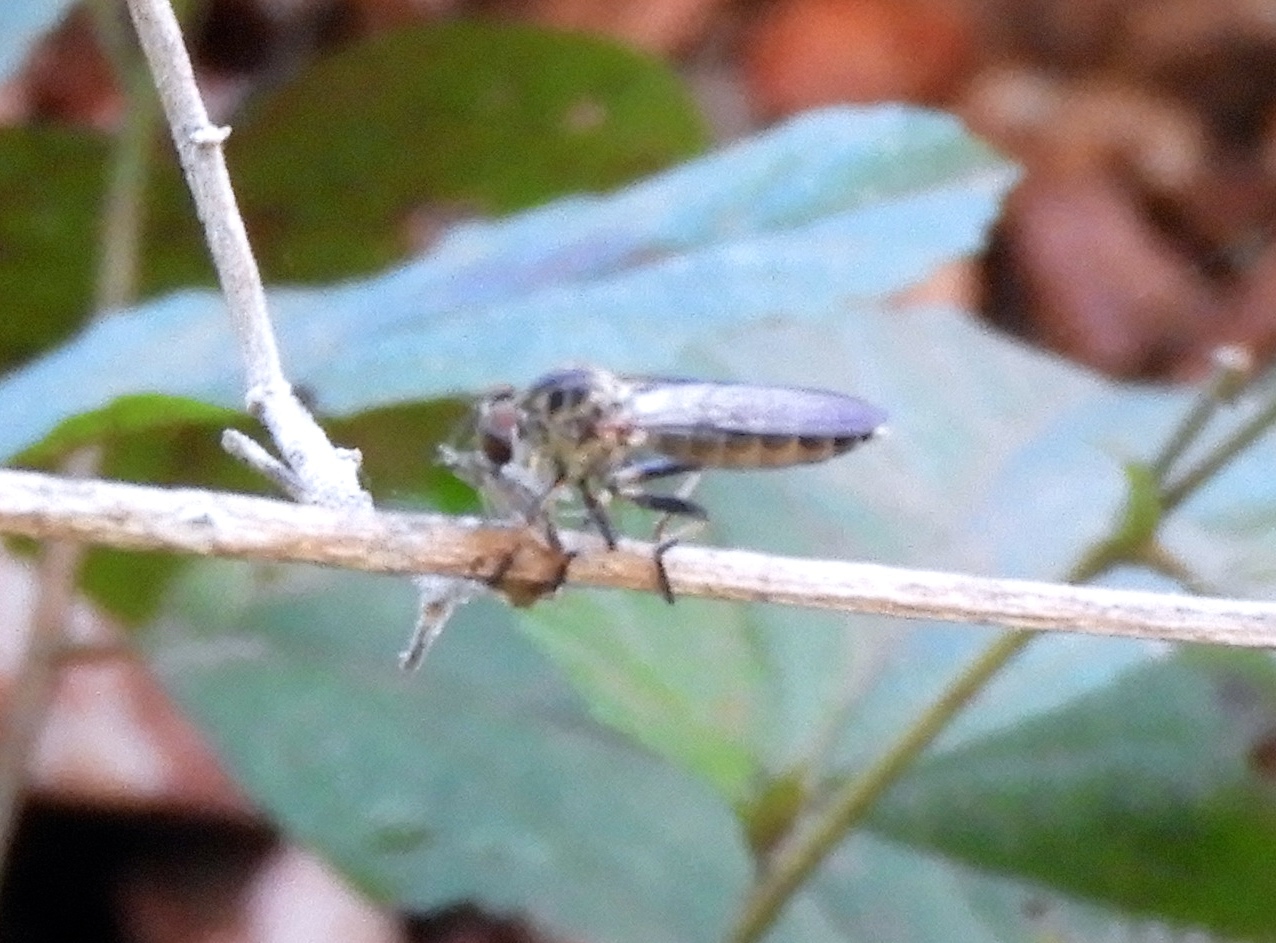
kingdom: Animalia
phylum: Arthropoda
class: Insecta
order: Diptera
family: Asilidae
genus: Ommatius
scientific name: Ommatius
